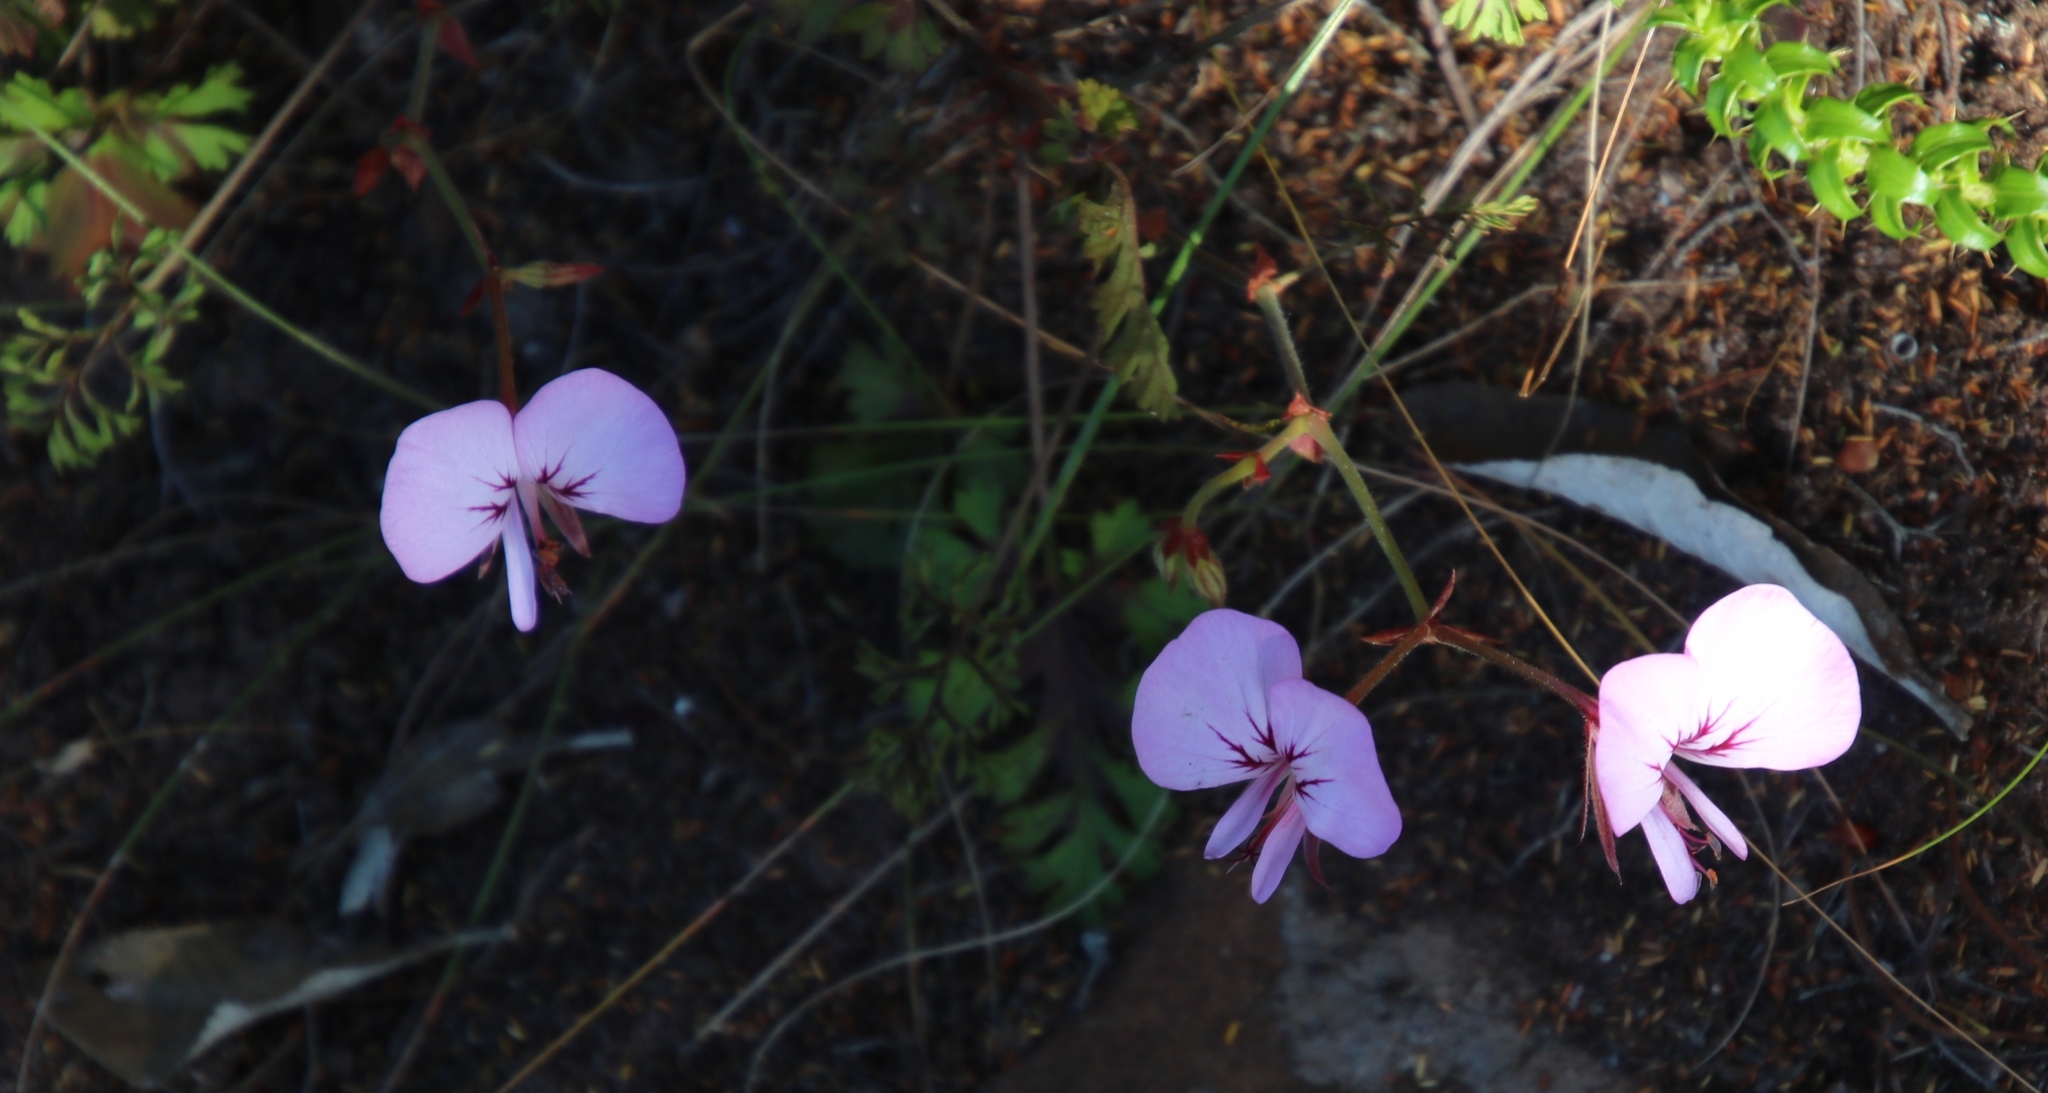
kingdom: Plantae
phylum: Tracheophyta
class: Magnoliopsida
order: Geraniales
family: Geraniaceae
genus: Pelargonium
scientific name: Pelargonium myrrhifolium
